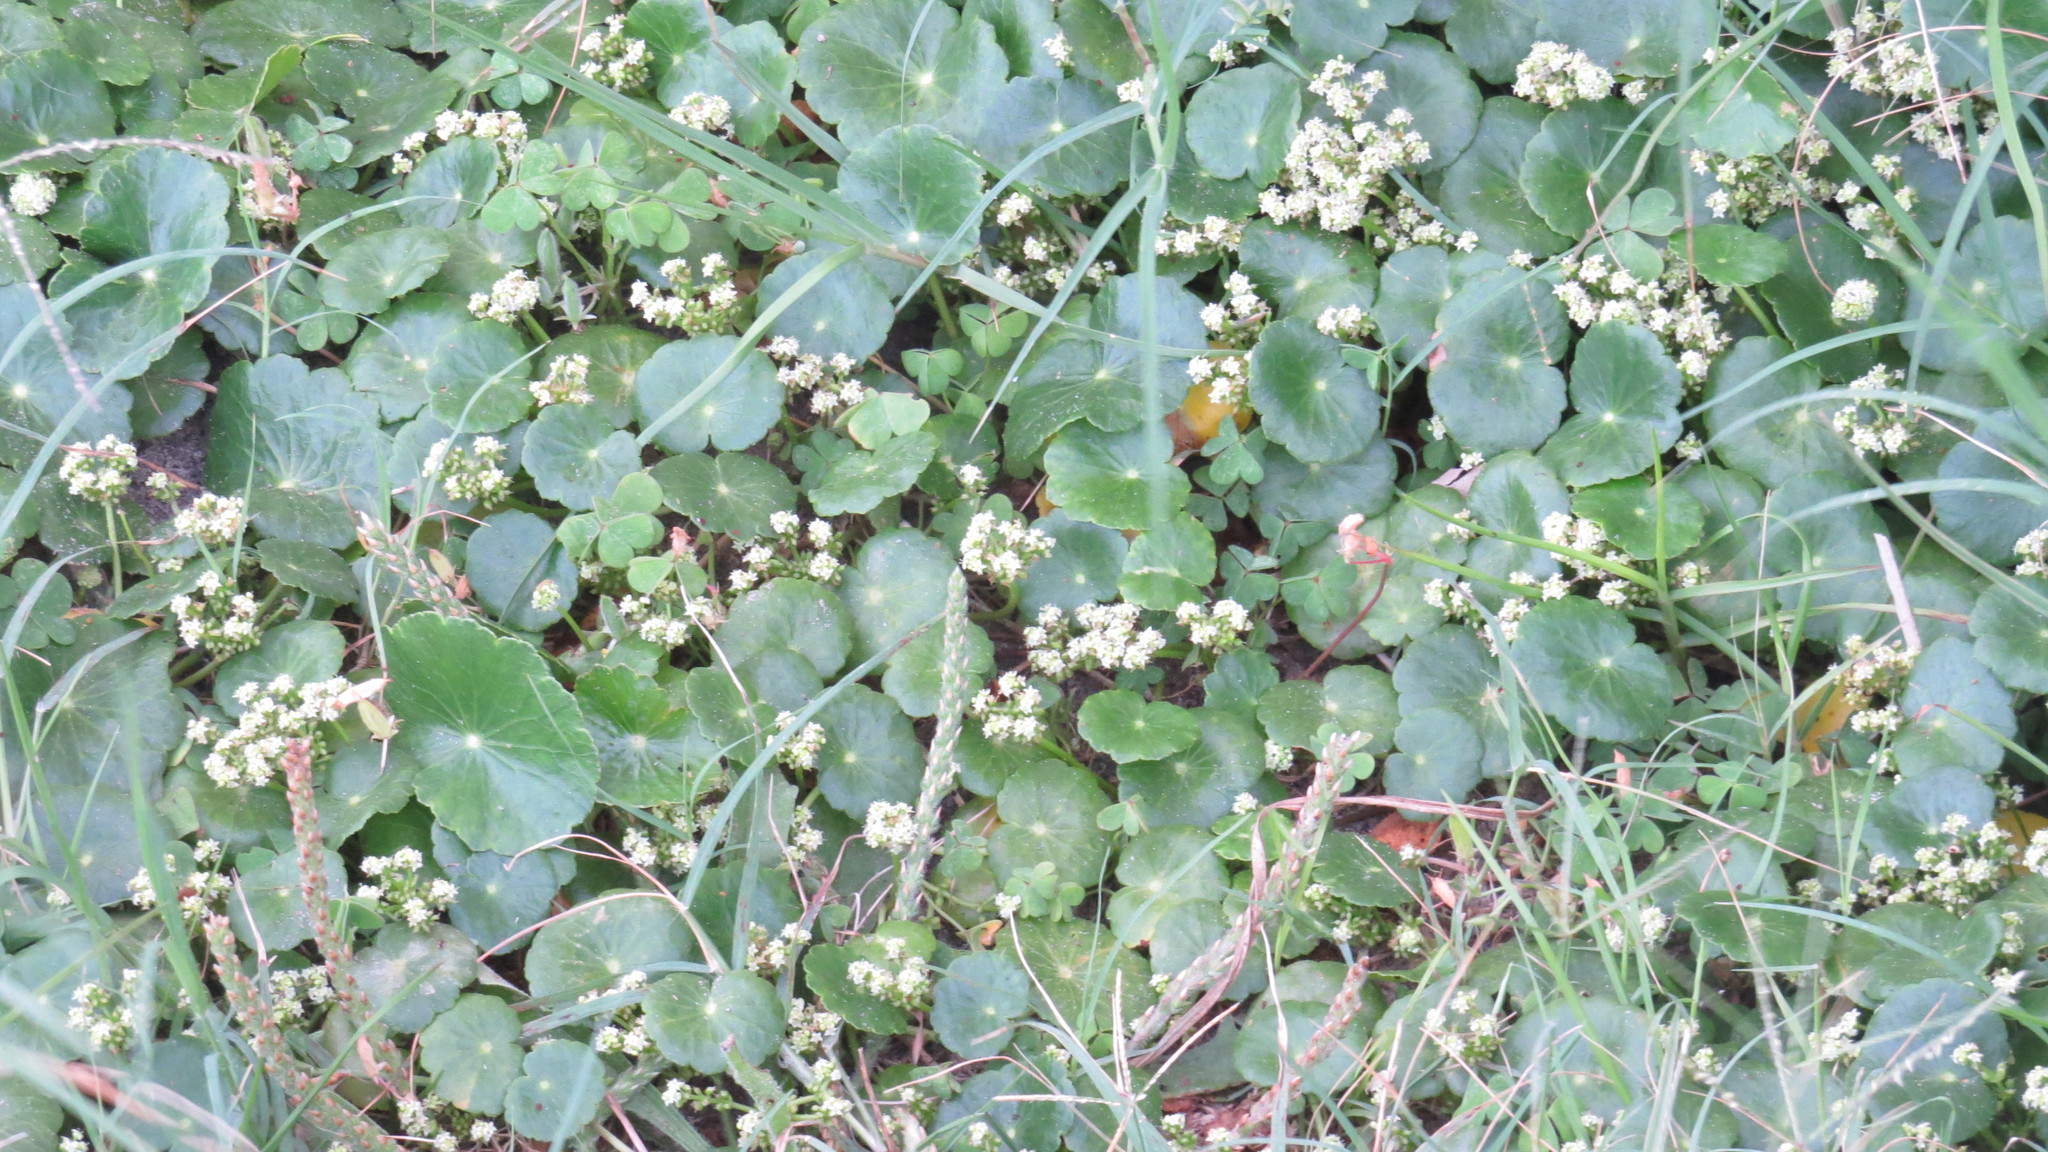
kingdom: Plantae
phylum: Tracheophyta
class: Magnoliopsida
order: Apiales
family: Araliaceae
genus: Hydrocotyle
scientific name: Hydrocotyle bonariensis
